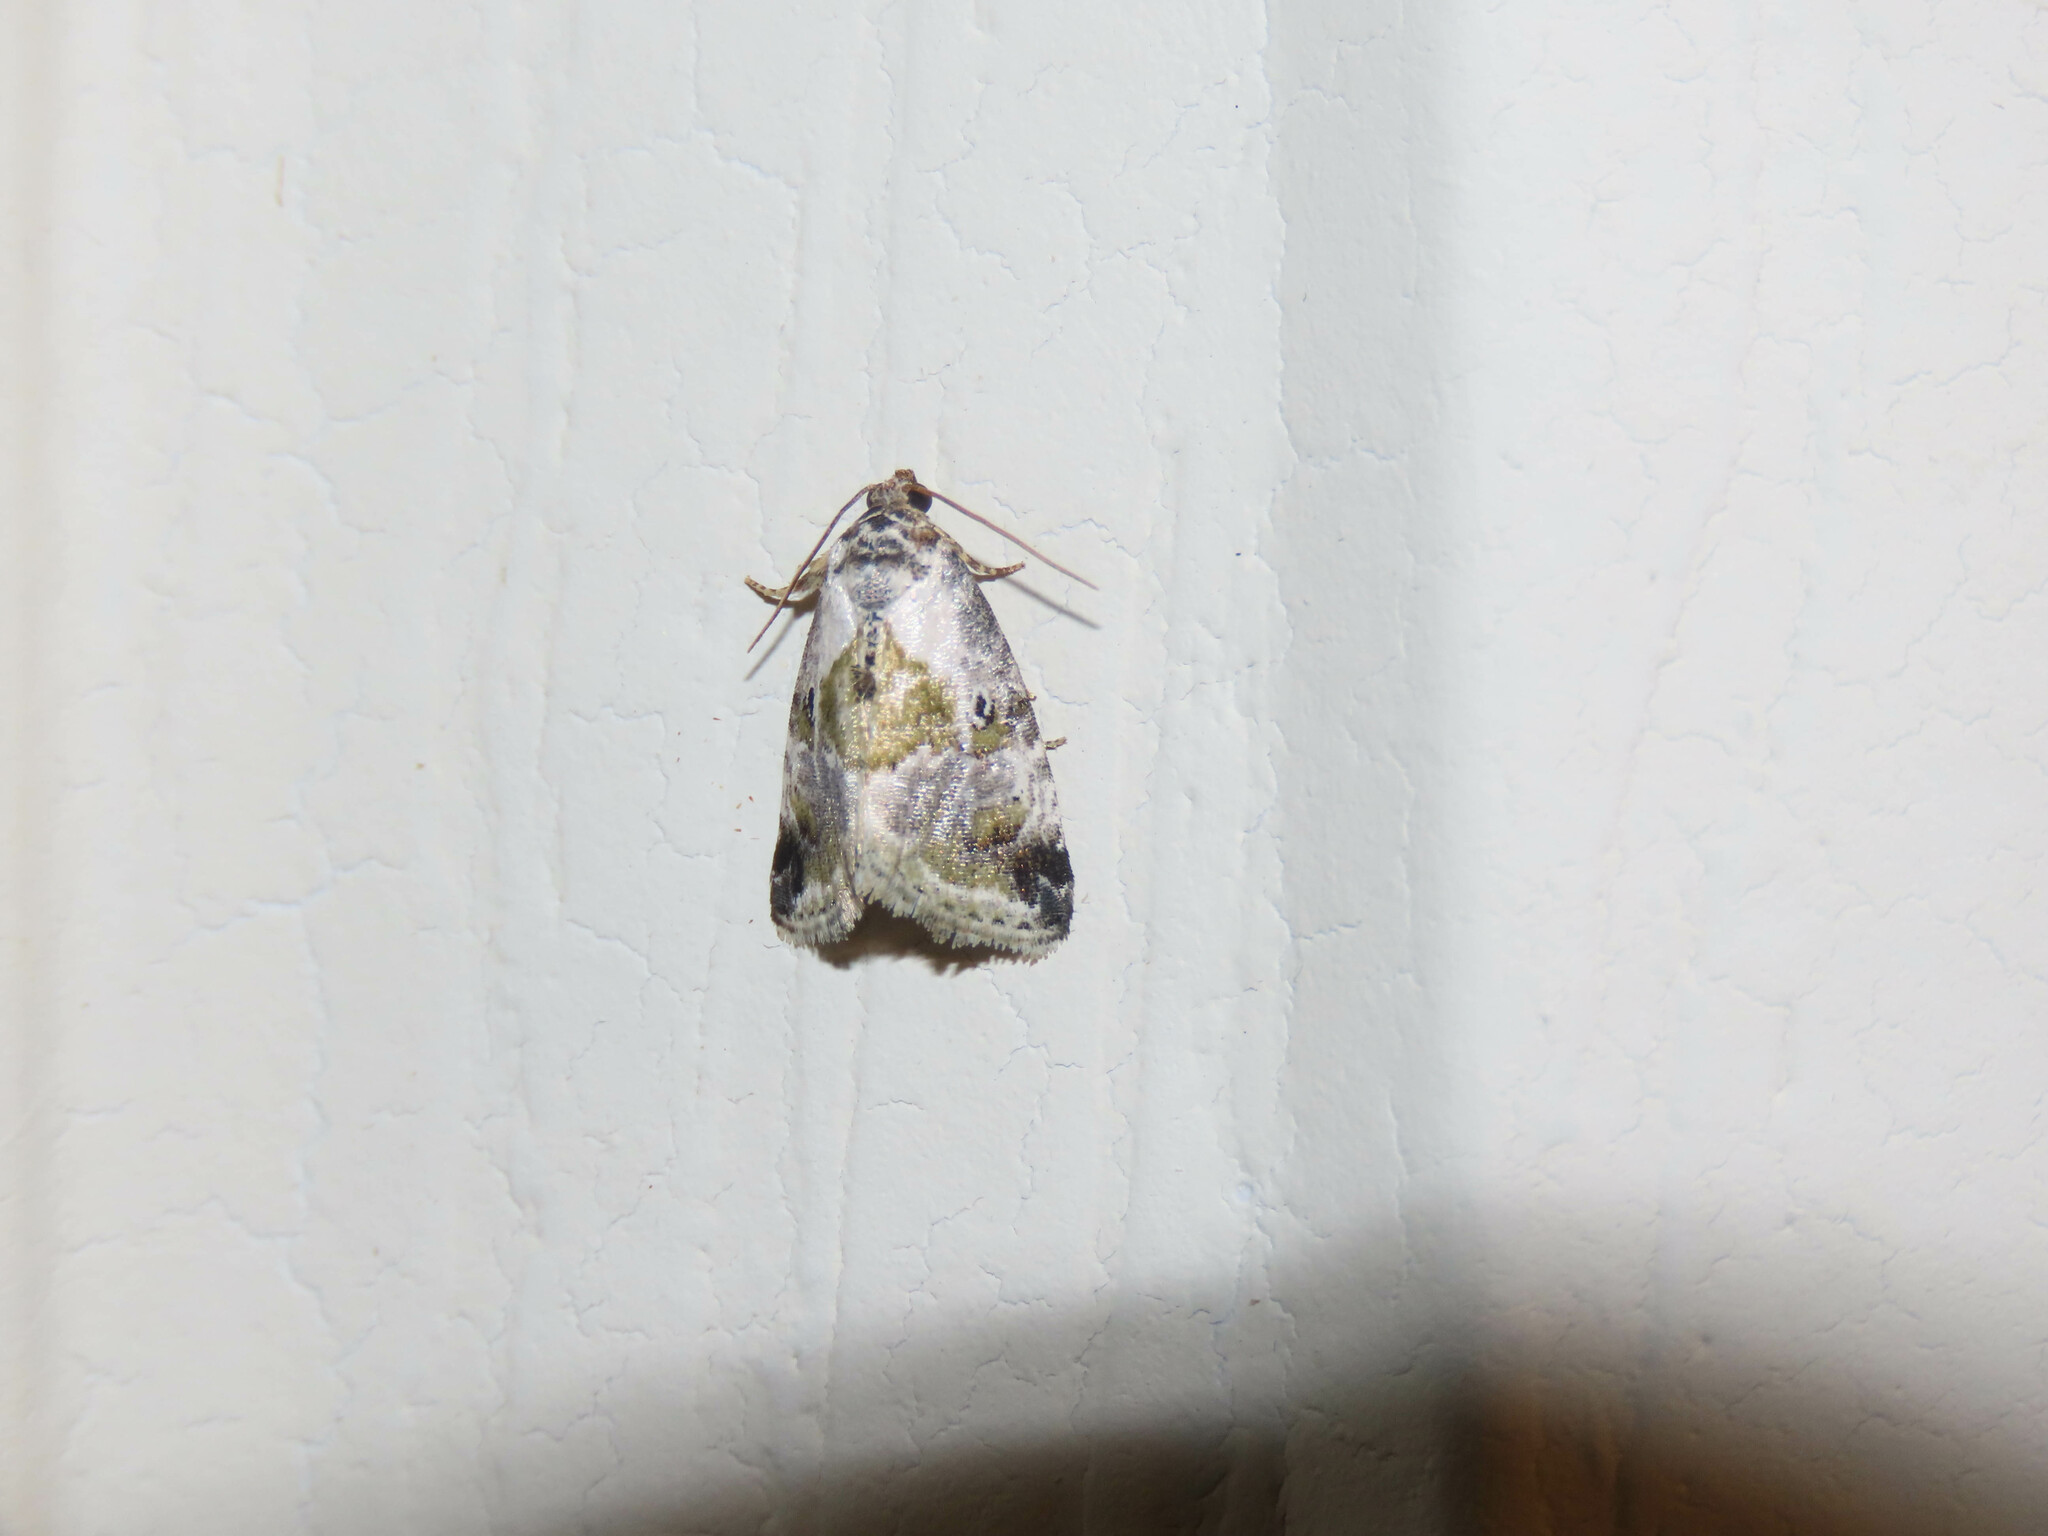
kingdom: Animalia
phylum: Arthropoda
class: Insecta
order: Lepidoptera
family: Noctuidae
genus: Maliattha
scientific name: Maliattha synochitis
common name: Black-dotted glyph
